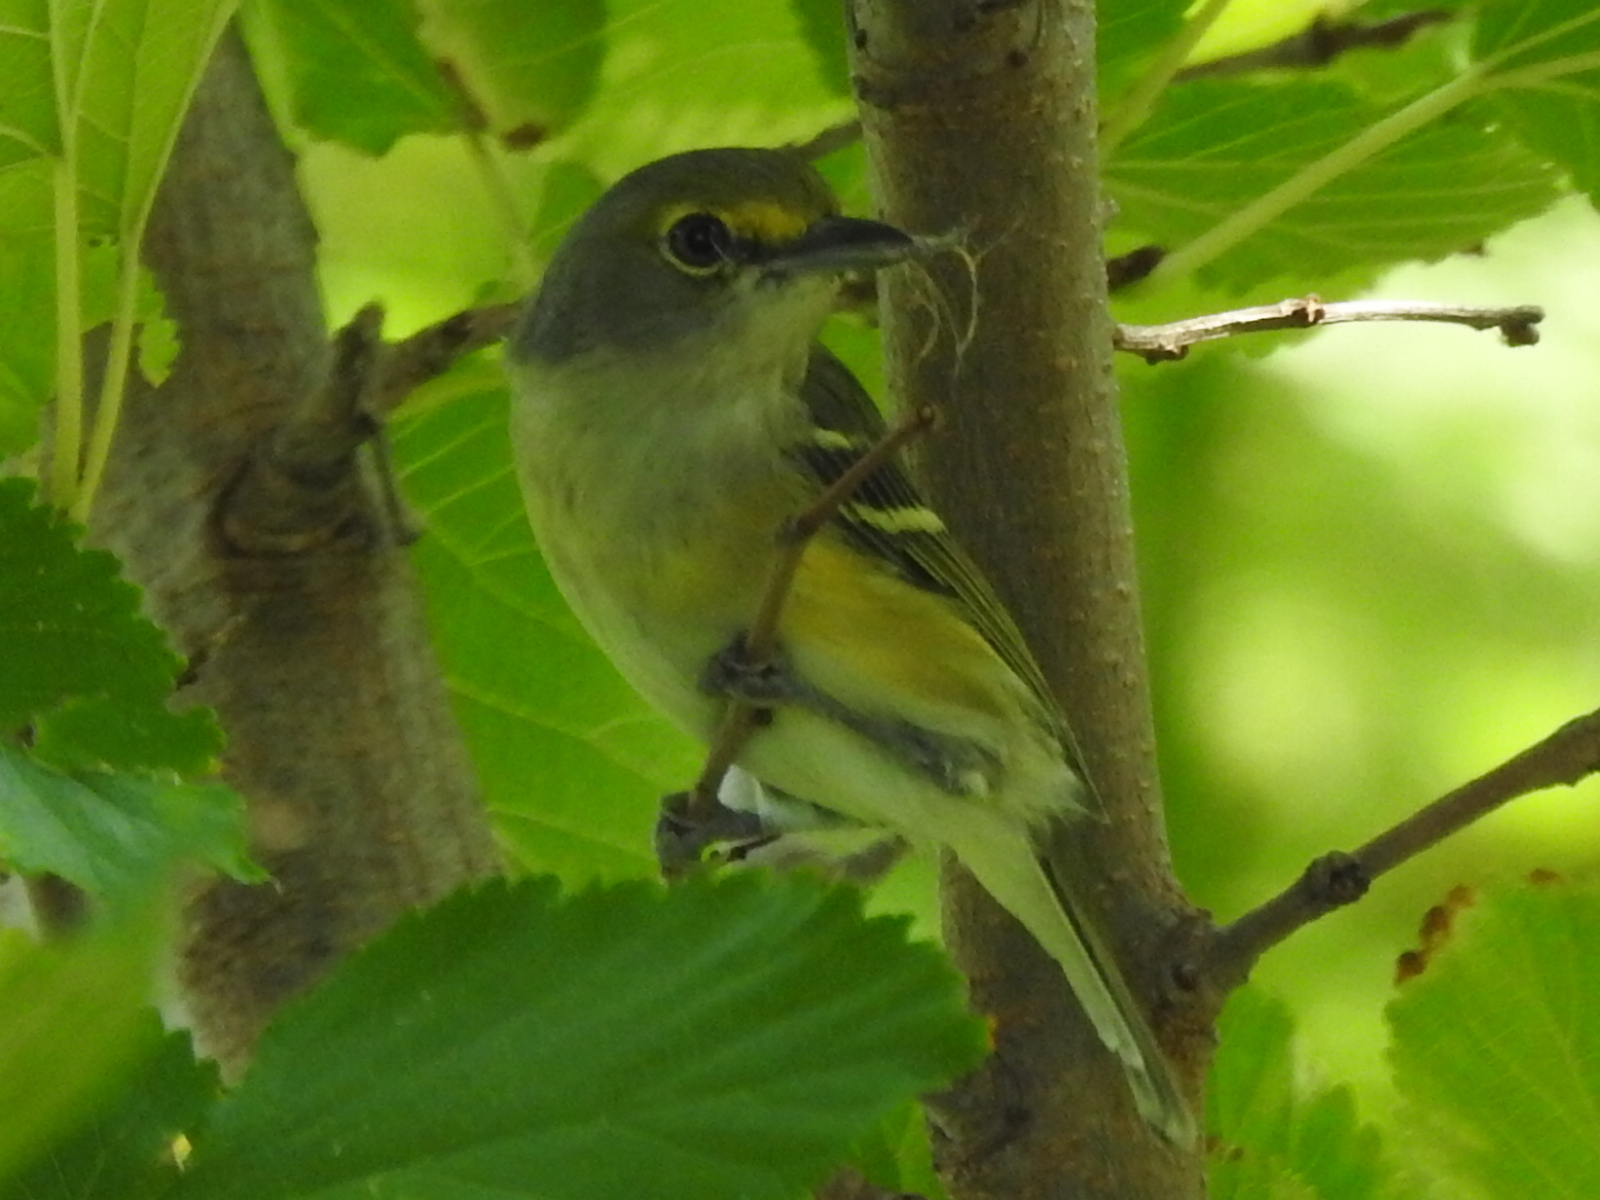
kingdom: Animalia
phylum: Chordata
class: Aves
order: Passeriformes
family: Vireonidae
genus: Vireo
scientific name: Vireo griseus
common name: White-eyed vireo
